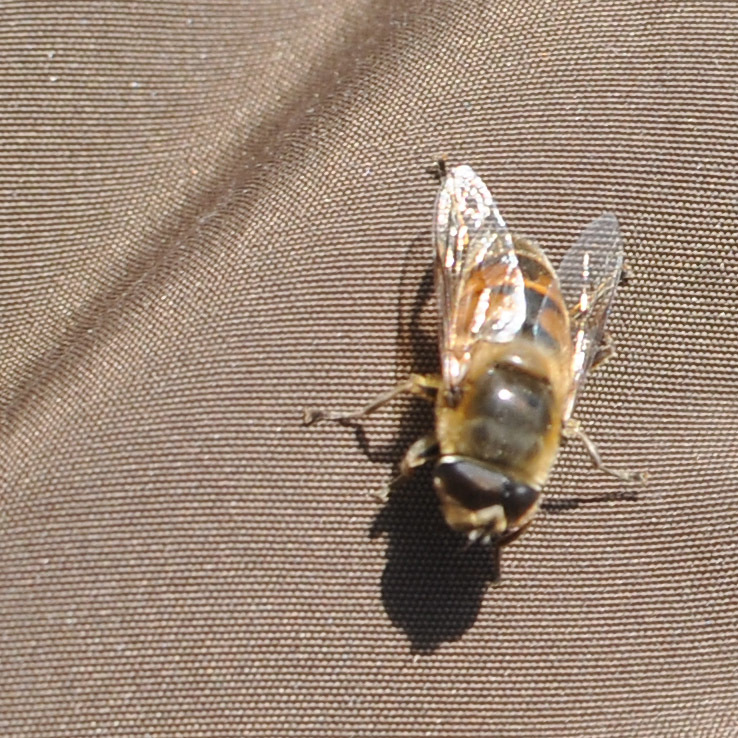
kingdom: Animalia
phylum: Arthropoda
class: Insecta
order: Diptera
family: Syrphidae
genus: Eristalis
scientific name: Eristalis tenax
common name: Drone fly
